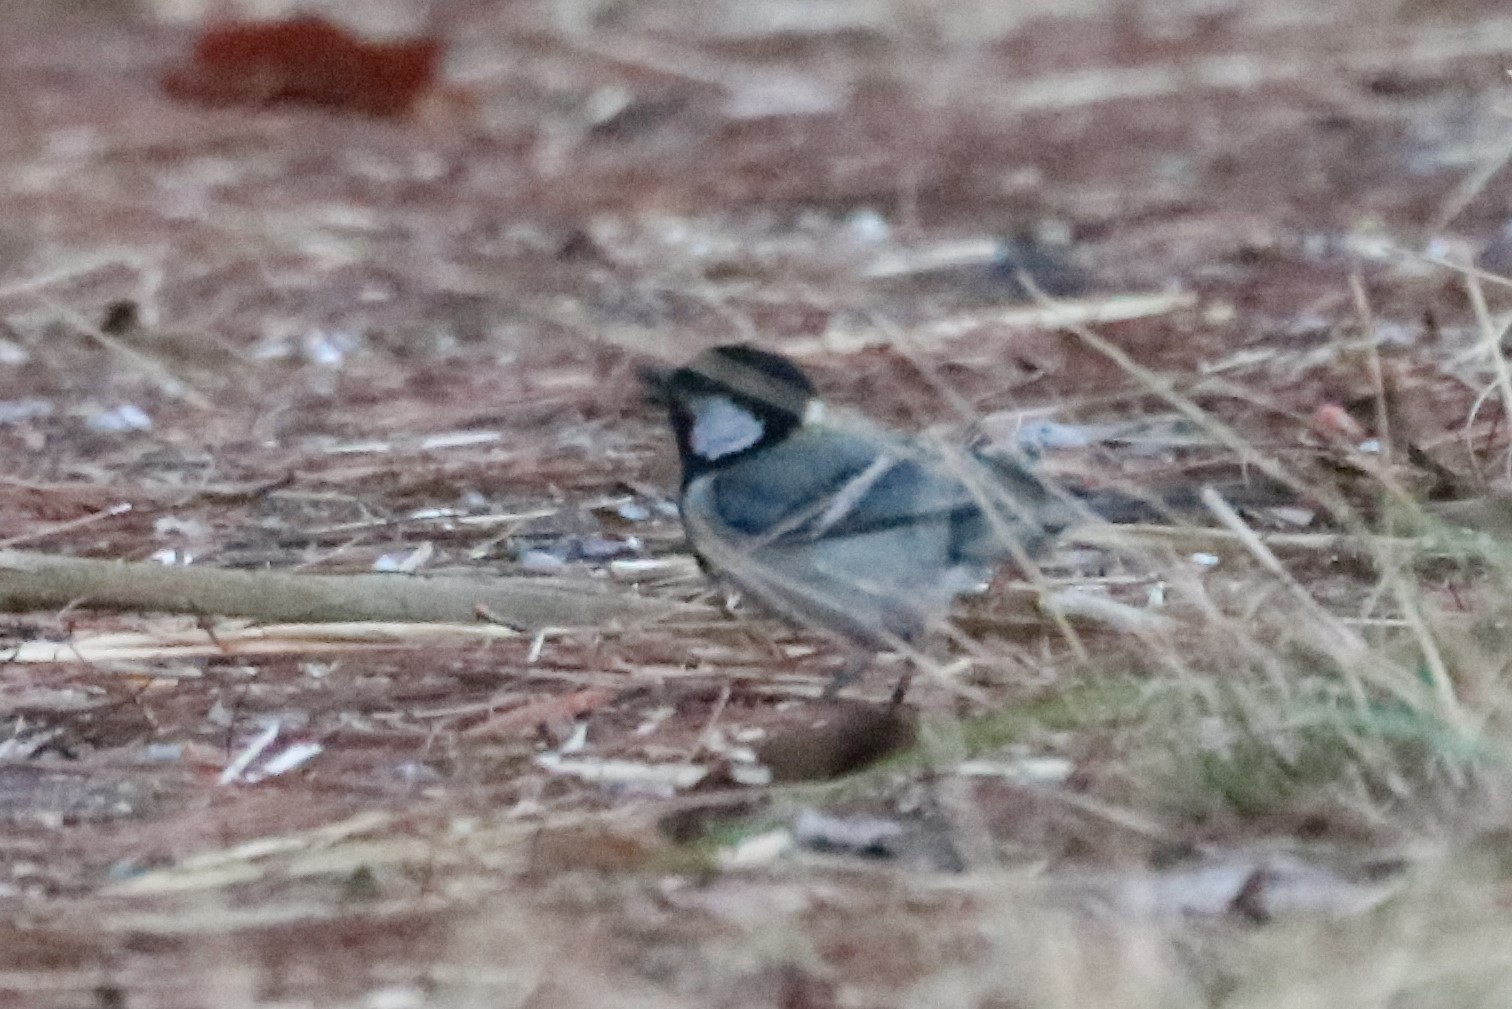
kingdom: Animalia
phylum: Chordata
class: Aves
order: Passeriformes
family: Paridae
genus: Parus
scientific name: Parus minor
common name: Japanese tit
